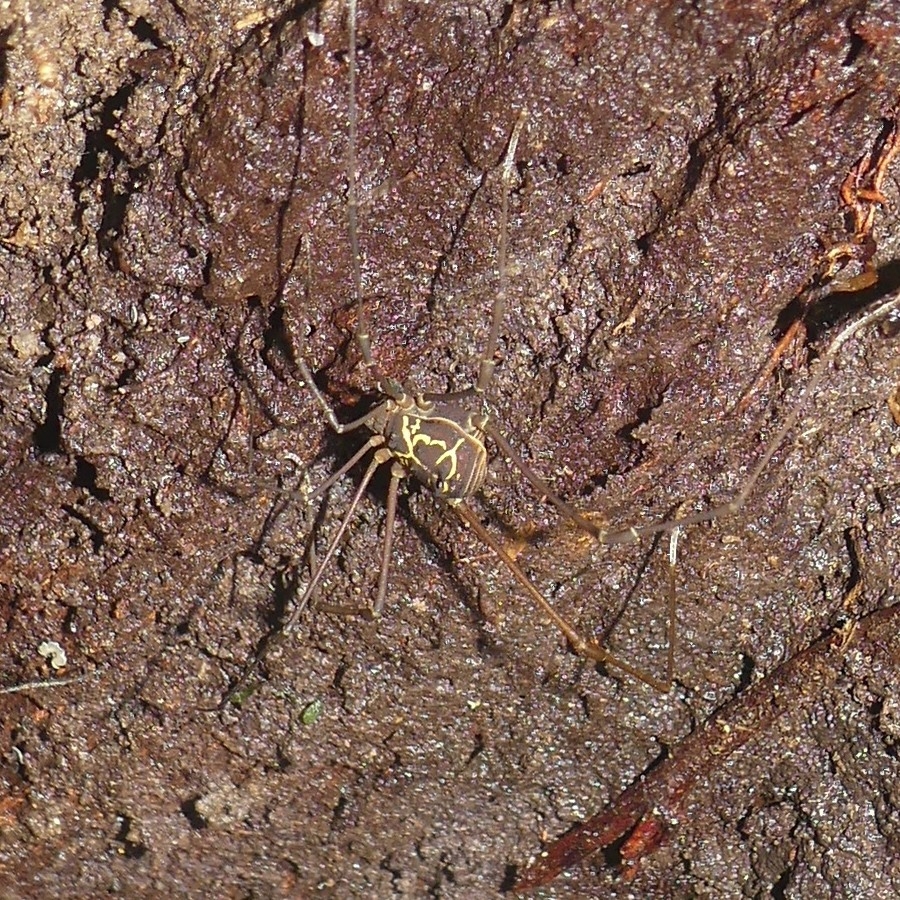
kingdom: Animalia
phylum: Arthropoda
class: Arachnida
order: Opiliones
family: Cosmetidae
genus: Paecilaema
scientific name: Paecilaema curvipes
